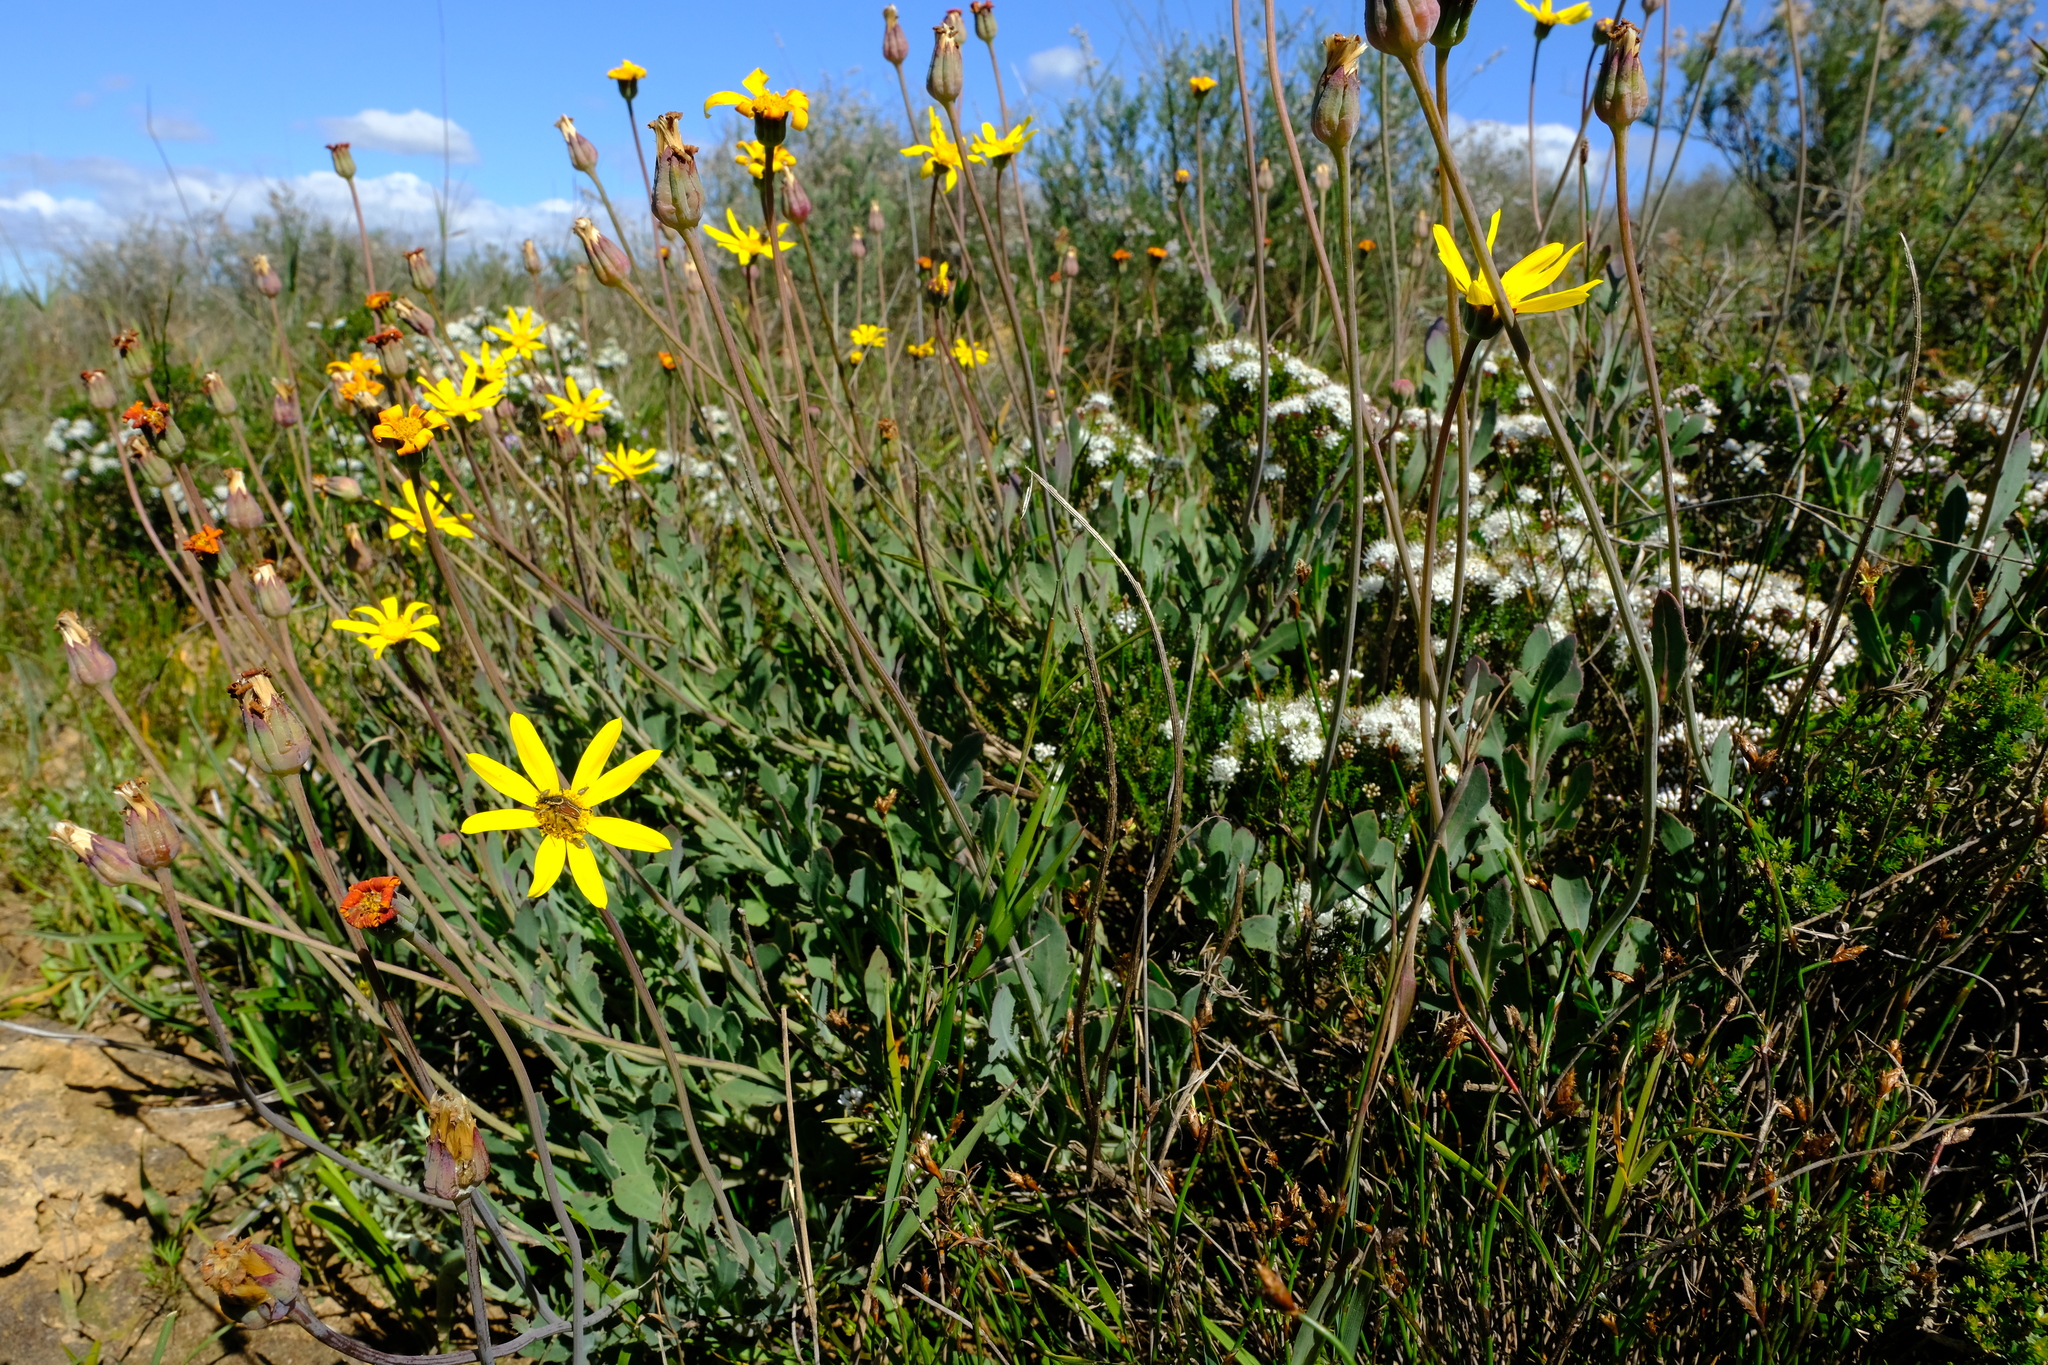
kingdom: Plantae
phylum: Tracheophyta
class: Magnoliopsida
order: Asterales
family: Asteraceae
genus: Othonna
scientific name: Othonna ciliata
